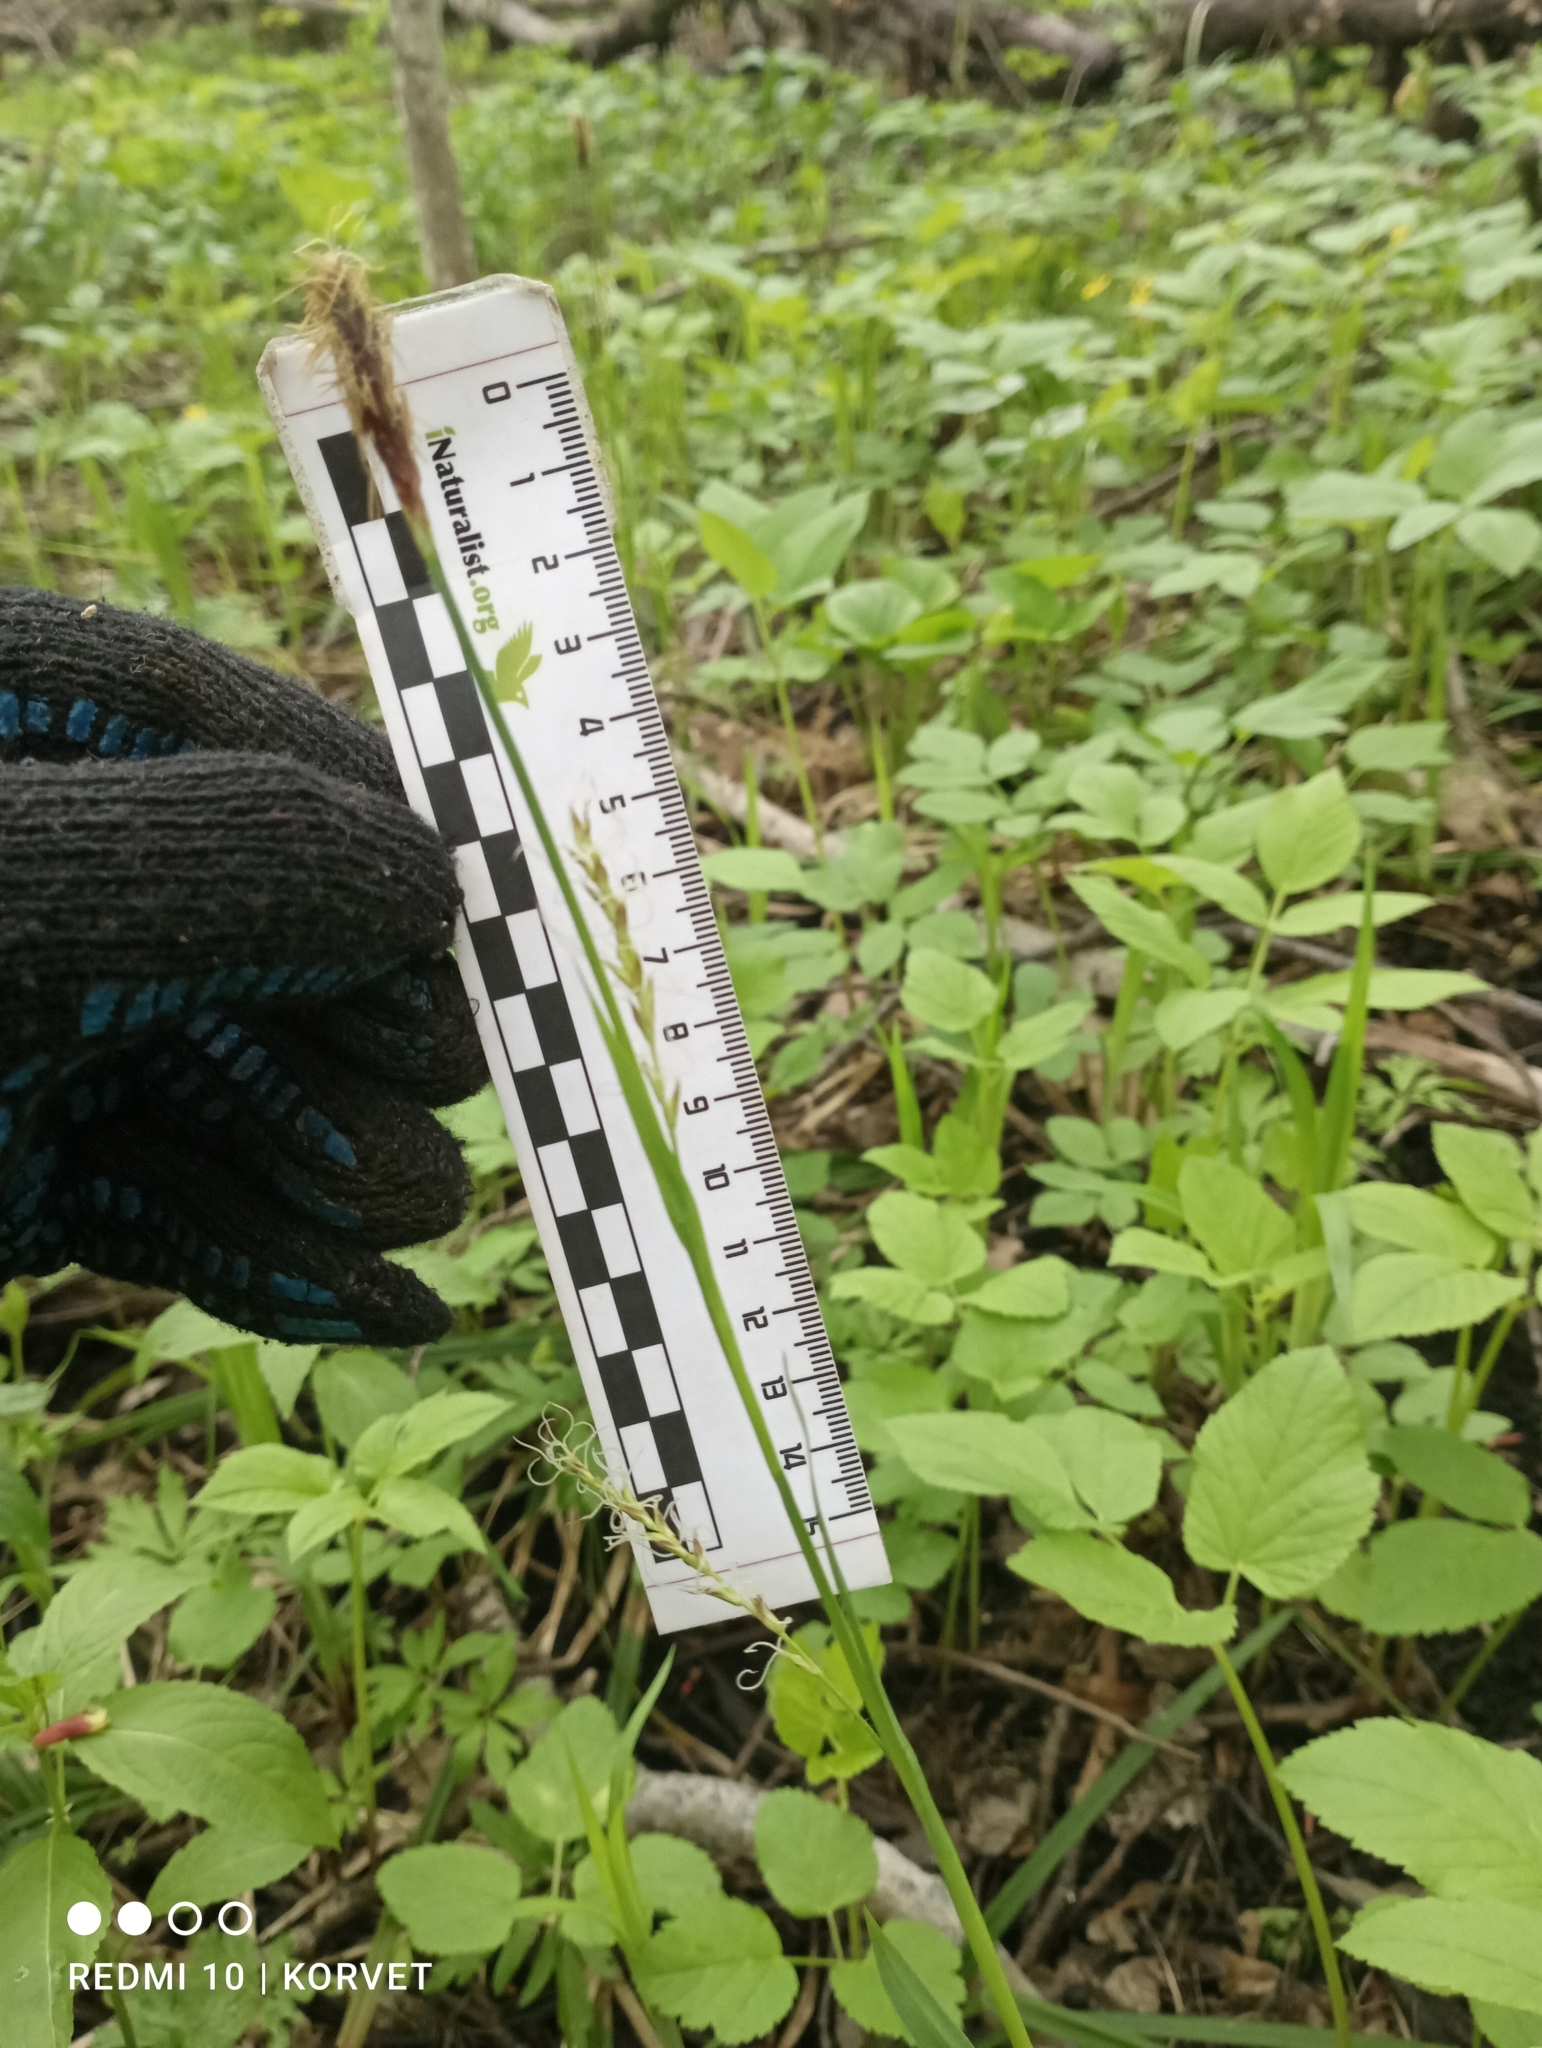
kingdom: Plantae
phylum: Tracheophyta
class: Liliopsida
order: Poales
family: Cyperaceae
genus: Carex
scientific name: Carex pilosa
